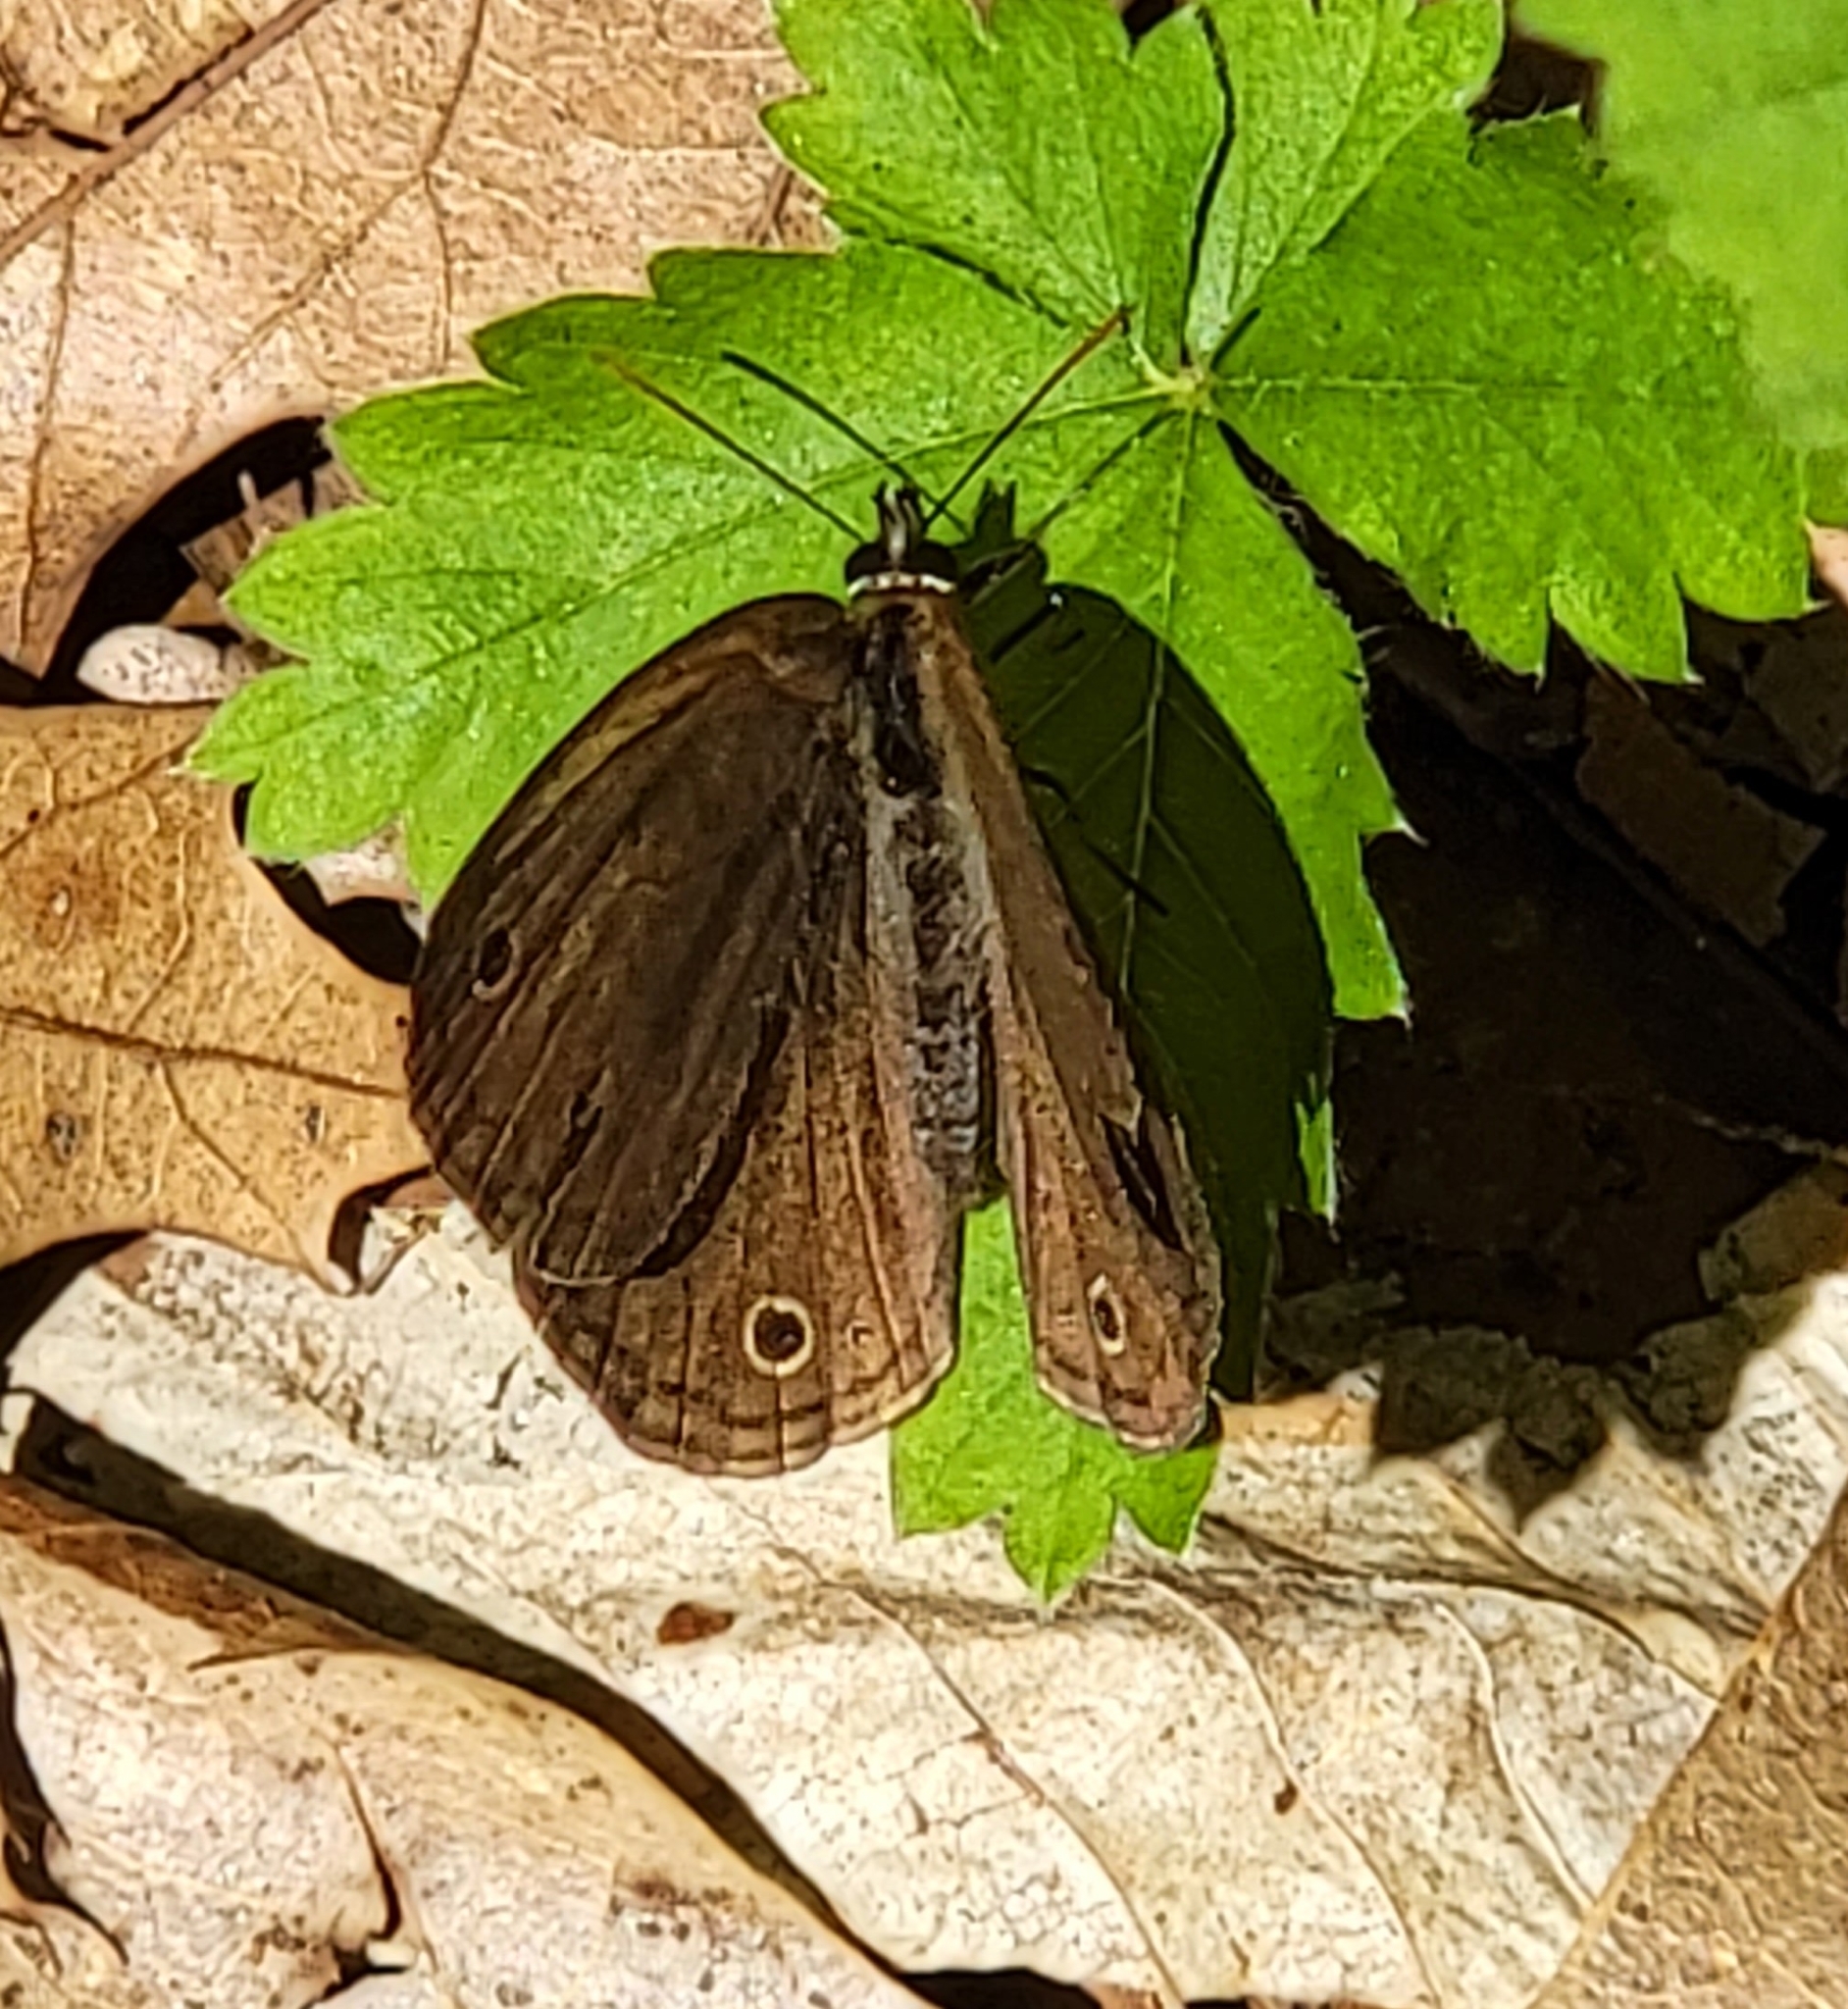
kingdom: Animalia
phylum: Arthropoda
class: Insecta
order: Lepidoptera
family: Nymphalidae
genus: Euptychia
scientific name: Euptychia cymela
